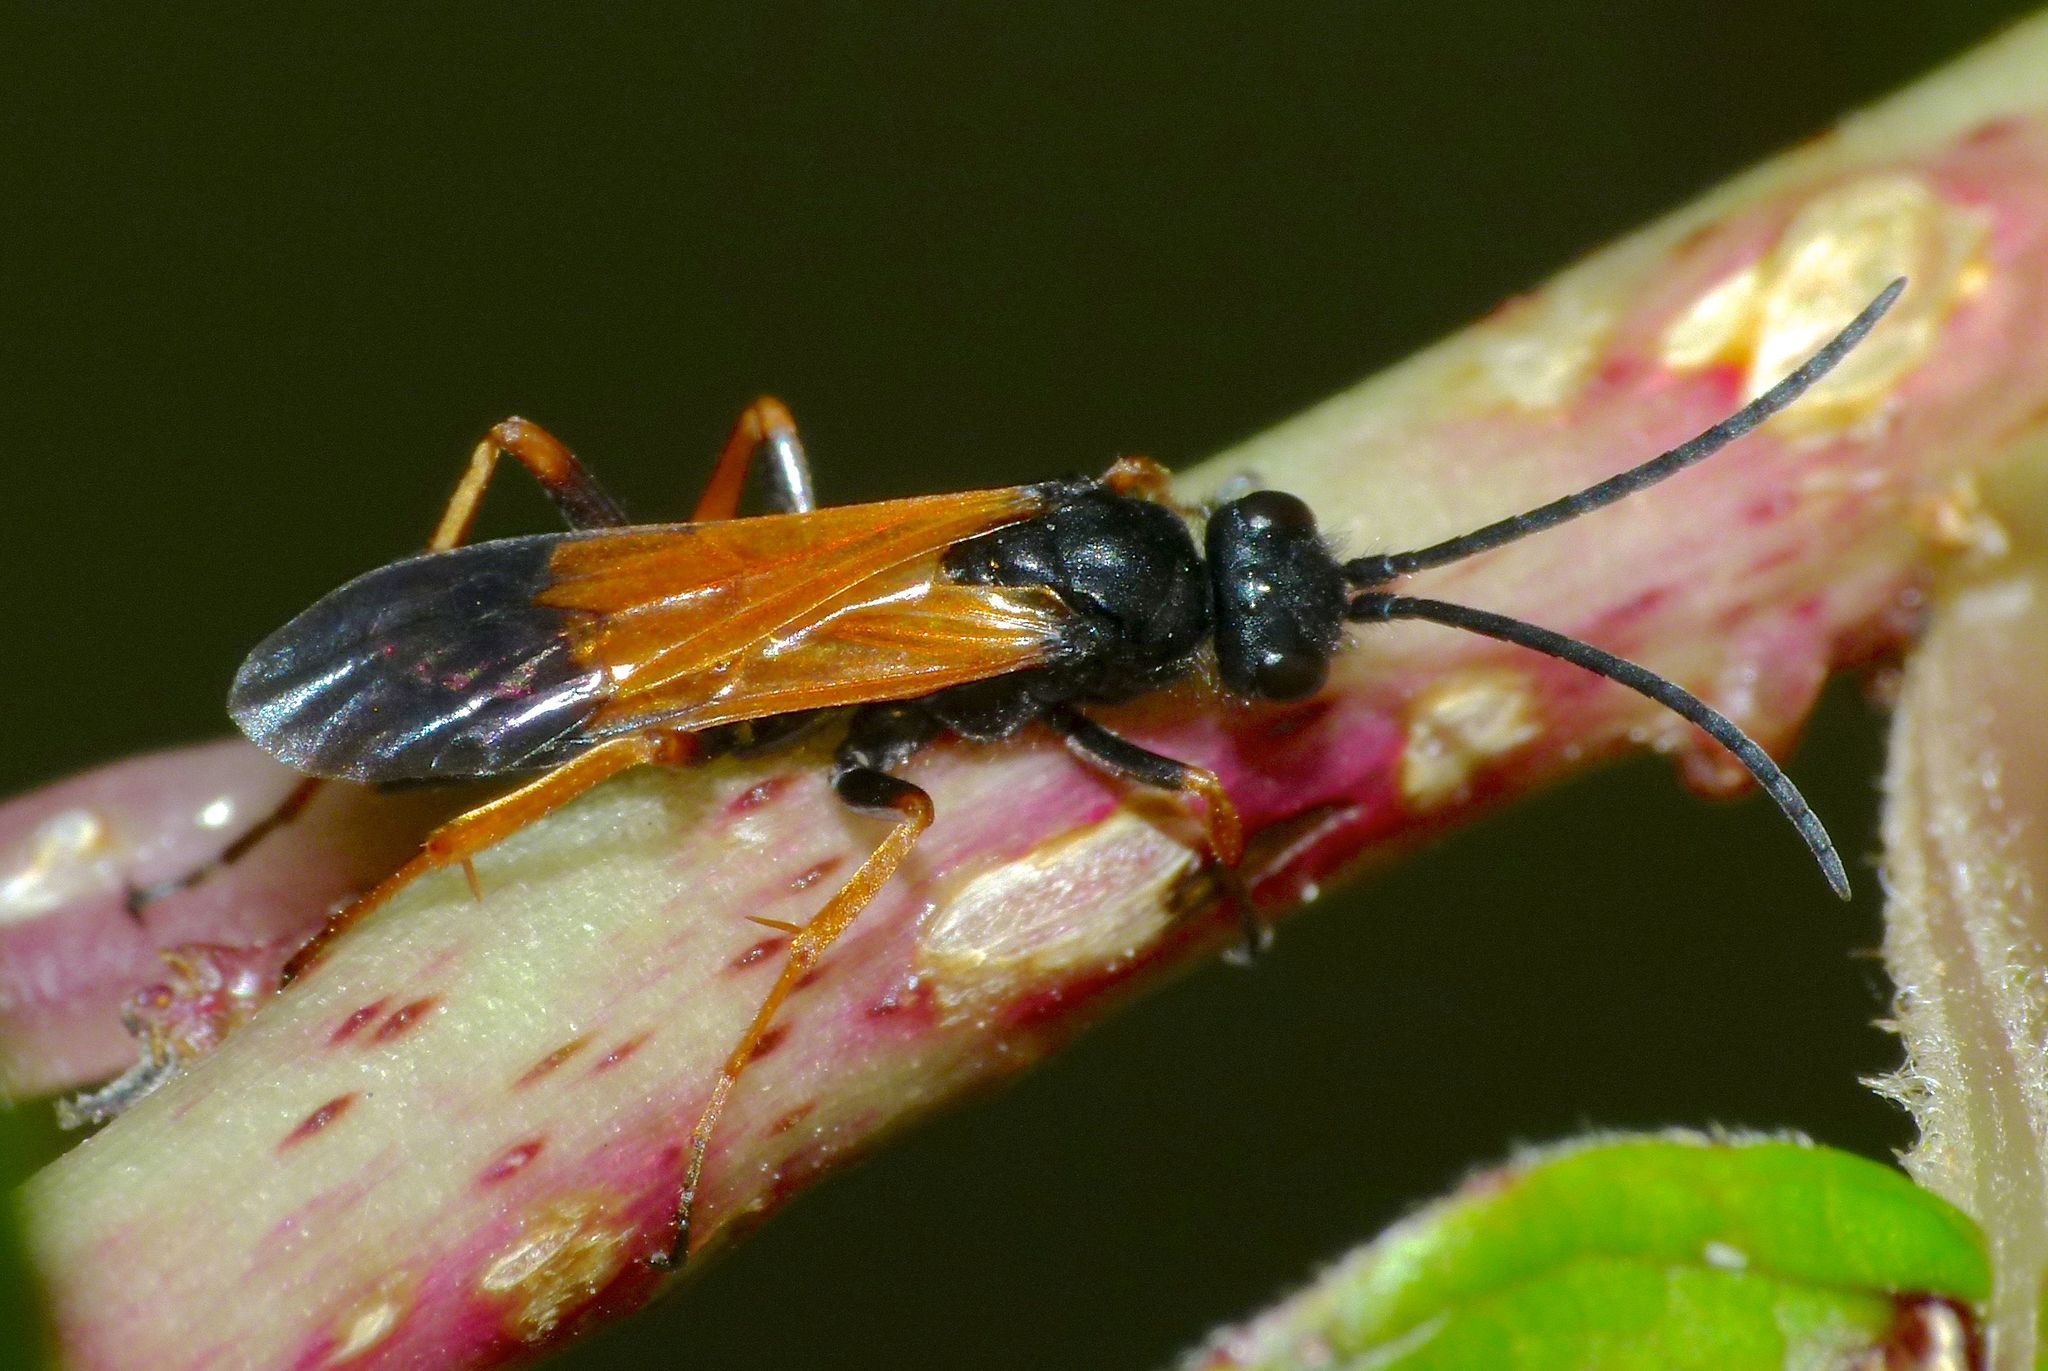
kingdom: Animalia
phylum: Arthropoda
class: Insecta
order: Hymenoptera
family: Pompilidae
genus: Priocnemis
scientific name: Priocnemis conformis
